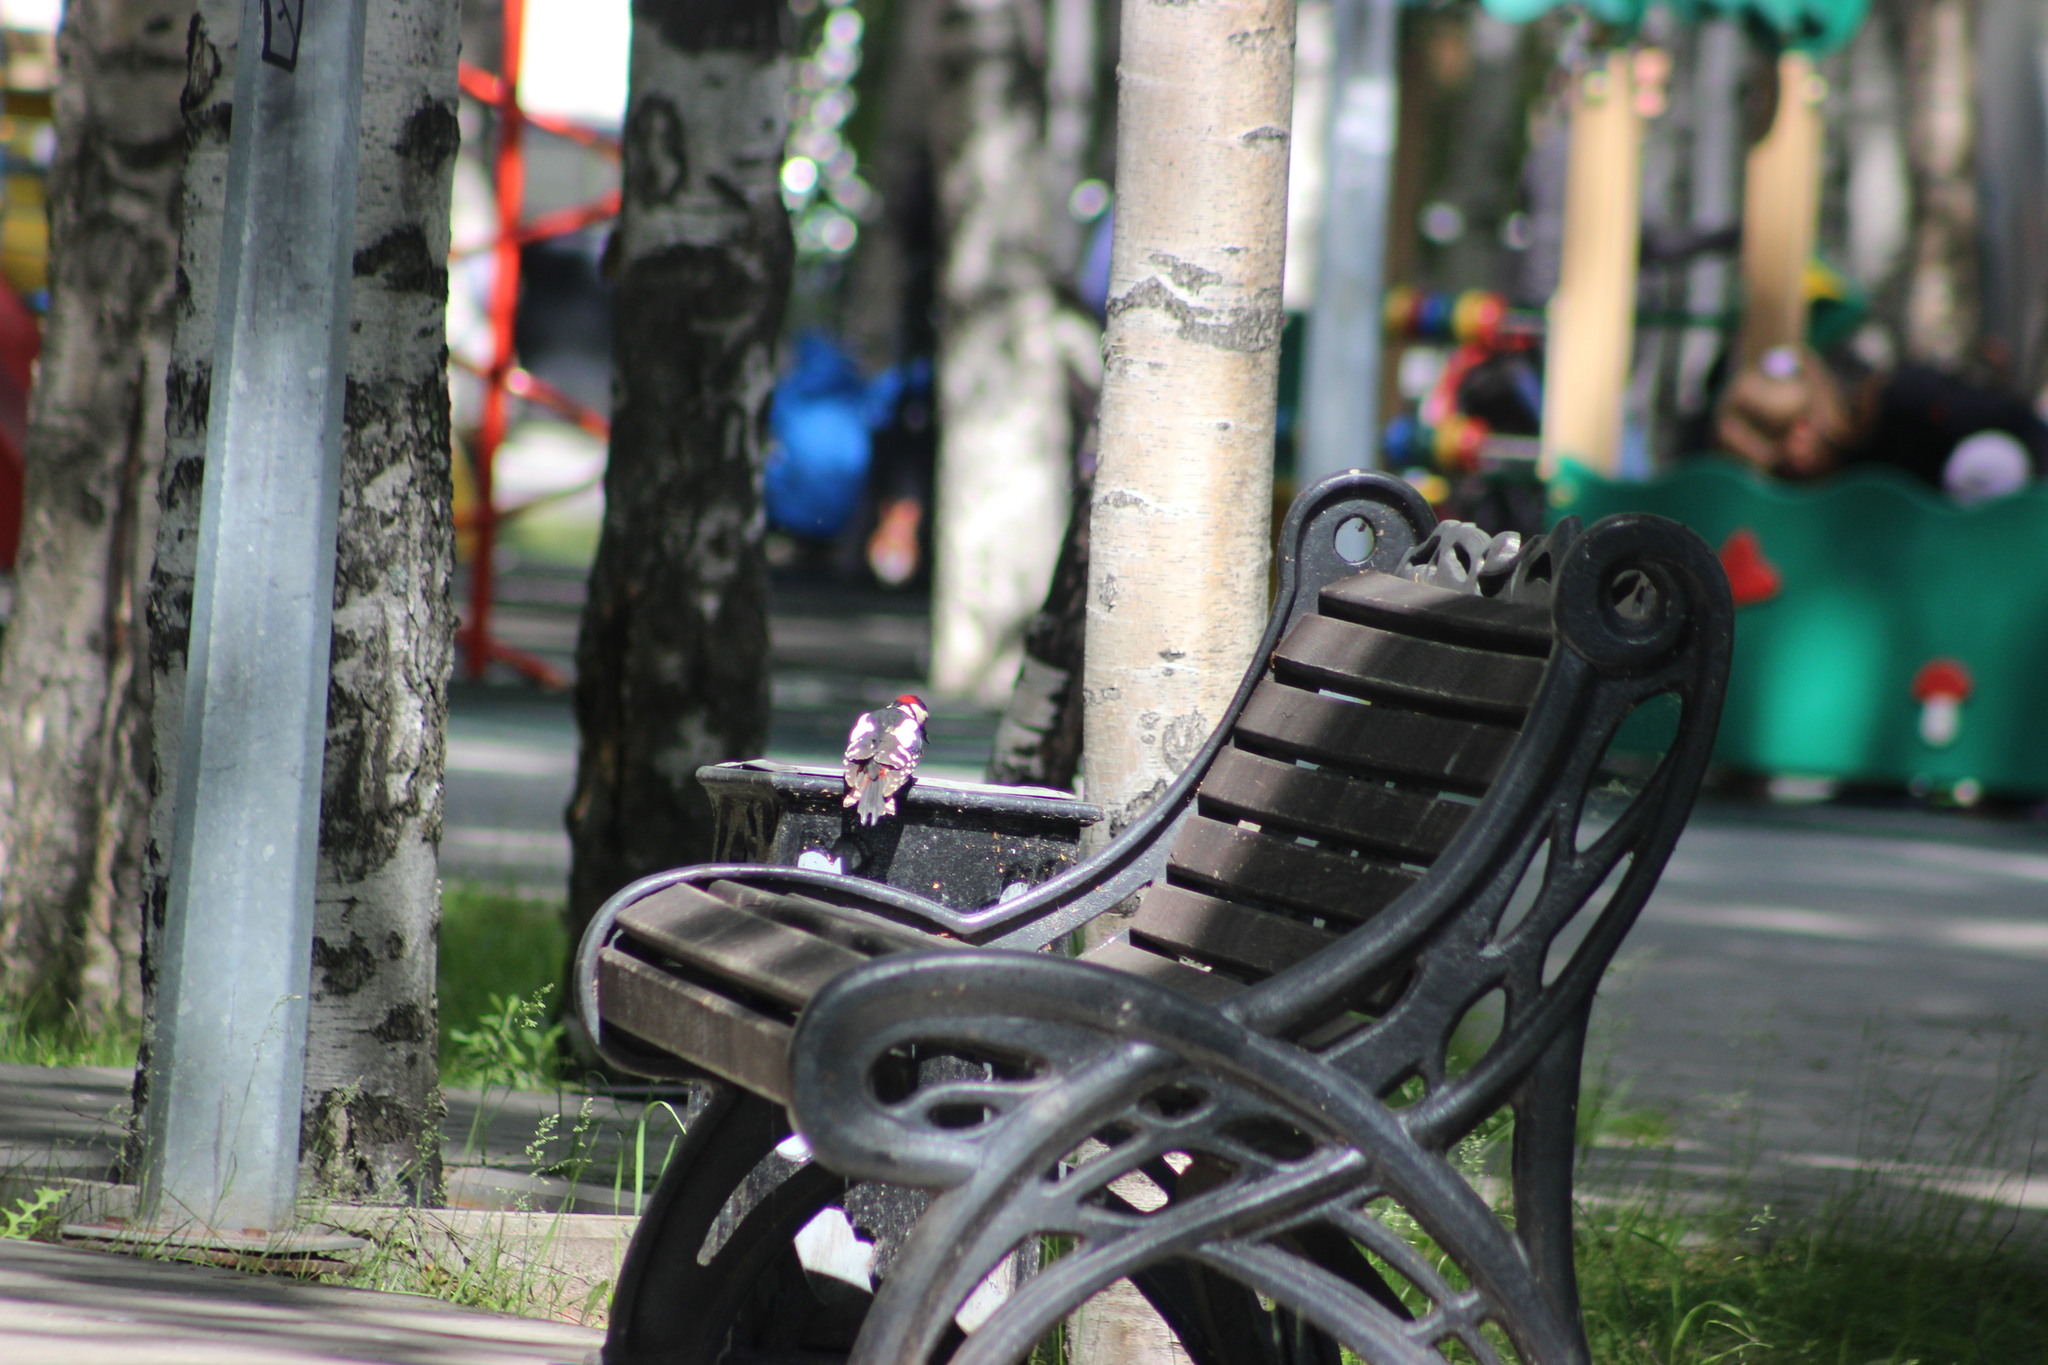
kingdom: Animalia
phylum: Chordata
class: Aves
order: Piciformes
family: Picidae
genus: Dendrocopos
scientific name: Dendrocopos major
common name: Great spotted woodpecker
